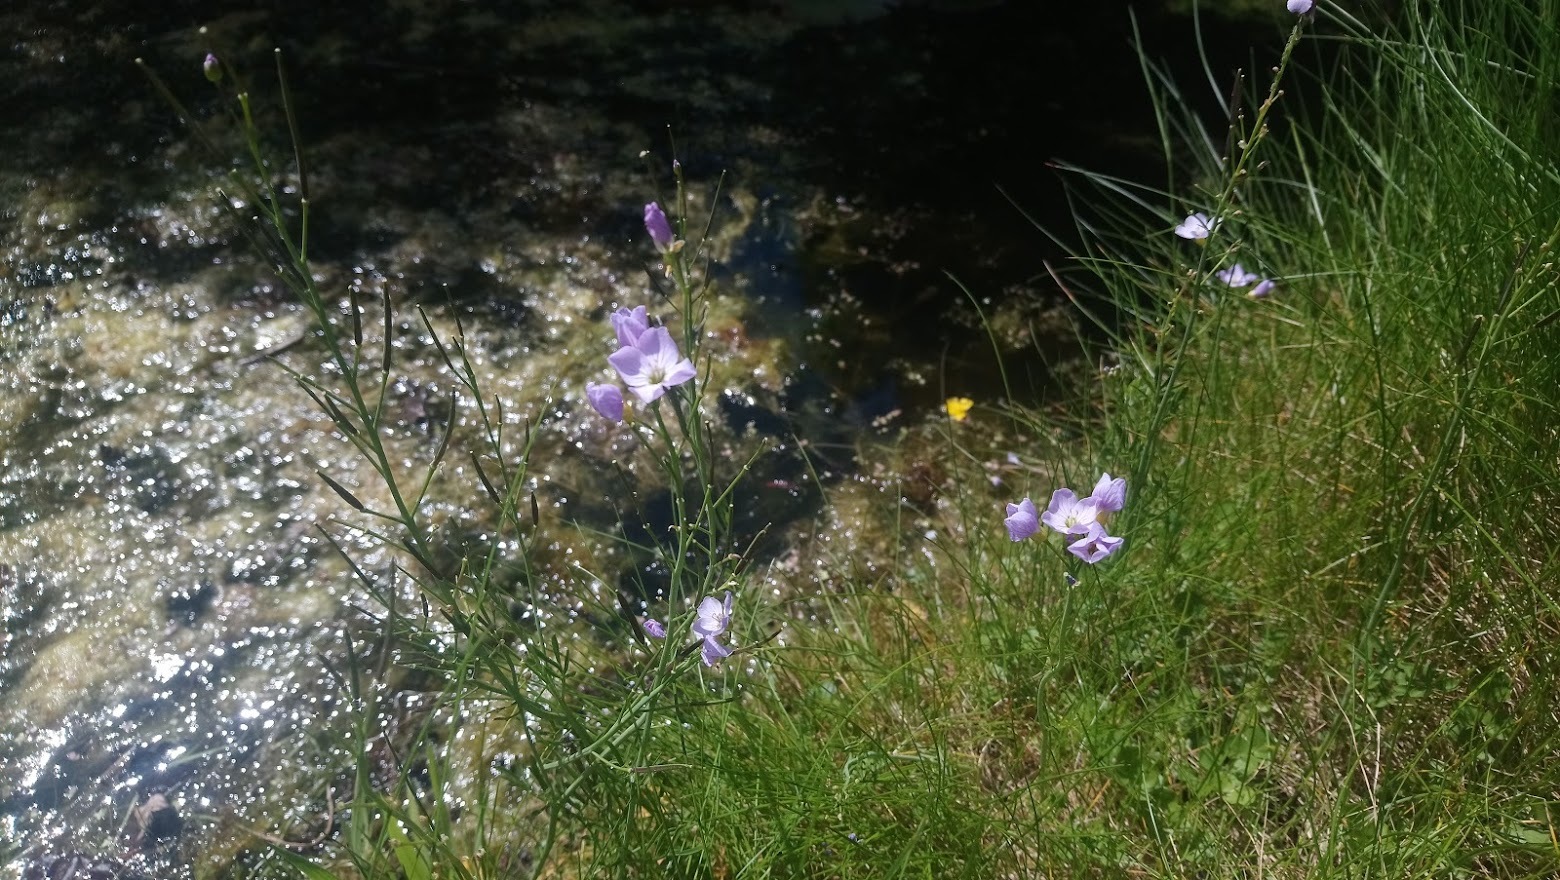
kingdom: Plantae
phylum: Tracheophyta
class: Magnoliopsida
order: Brassicales
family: Brassicaceae
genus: Cardamine
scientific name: Cardamine pratensis
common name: Cuckoo flower
